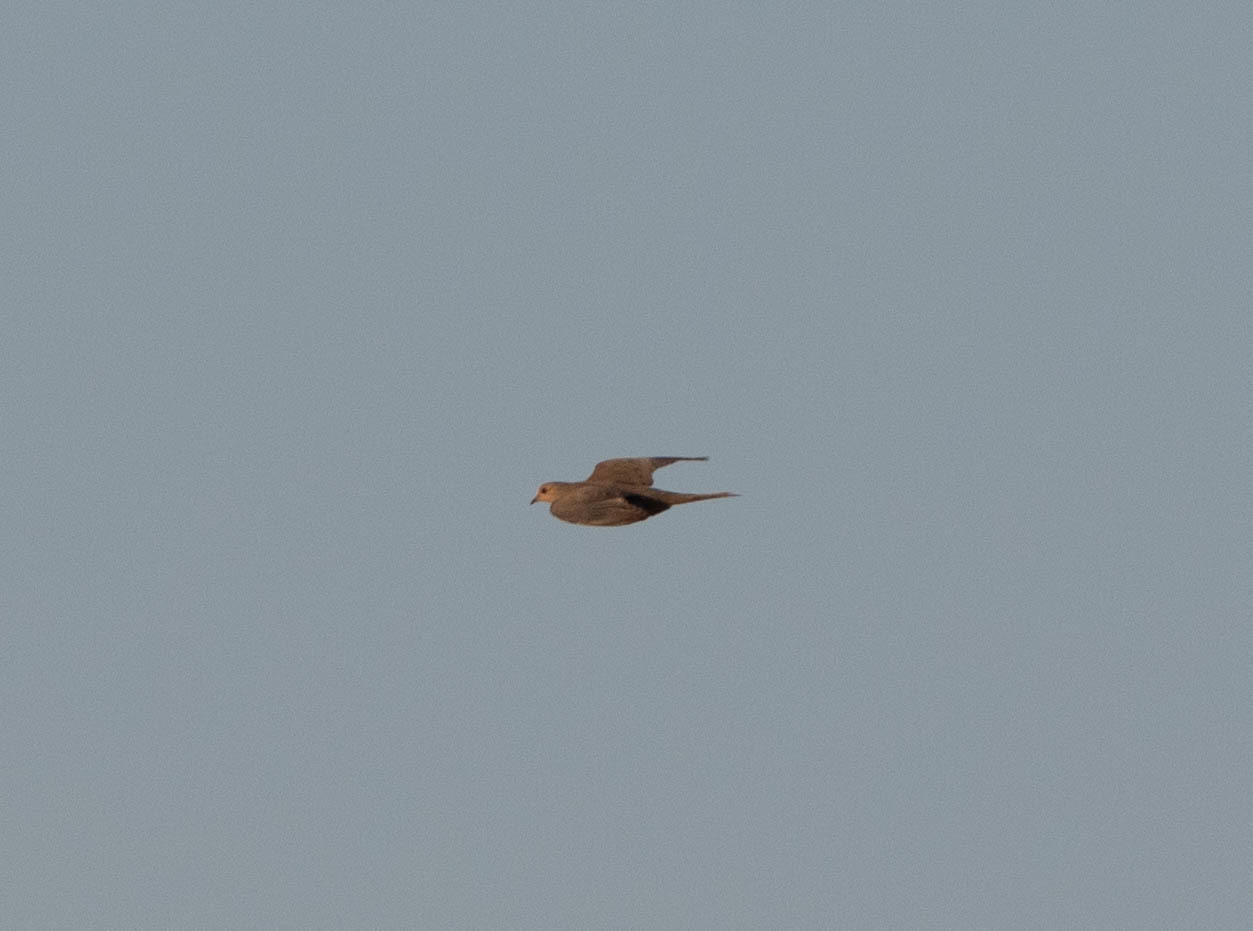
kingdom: Animalia
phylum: Chordata
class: Aves
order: Columbiformes
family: Columbidae
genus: Zenaida
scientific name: Zenaida macroura
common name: Mourning dove
